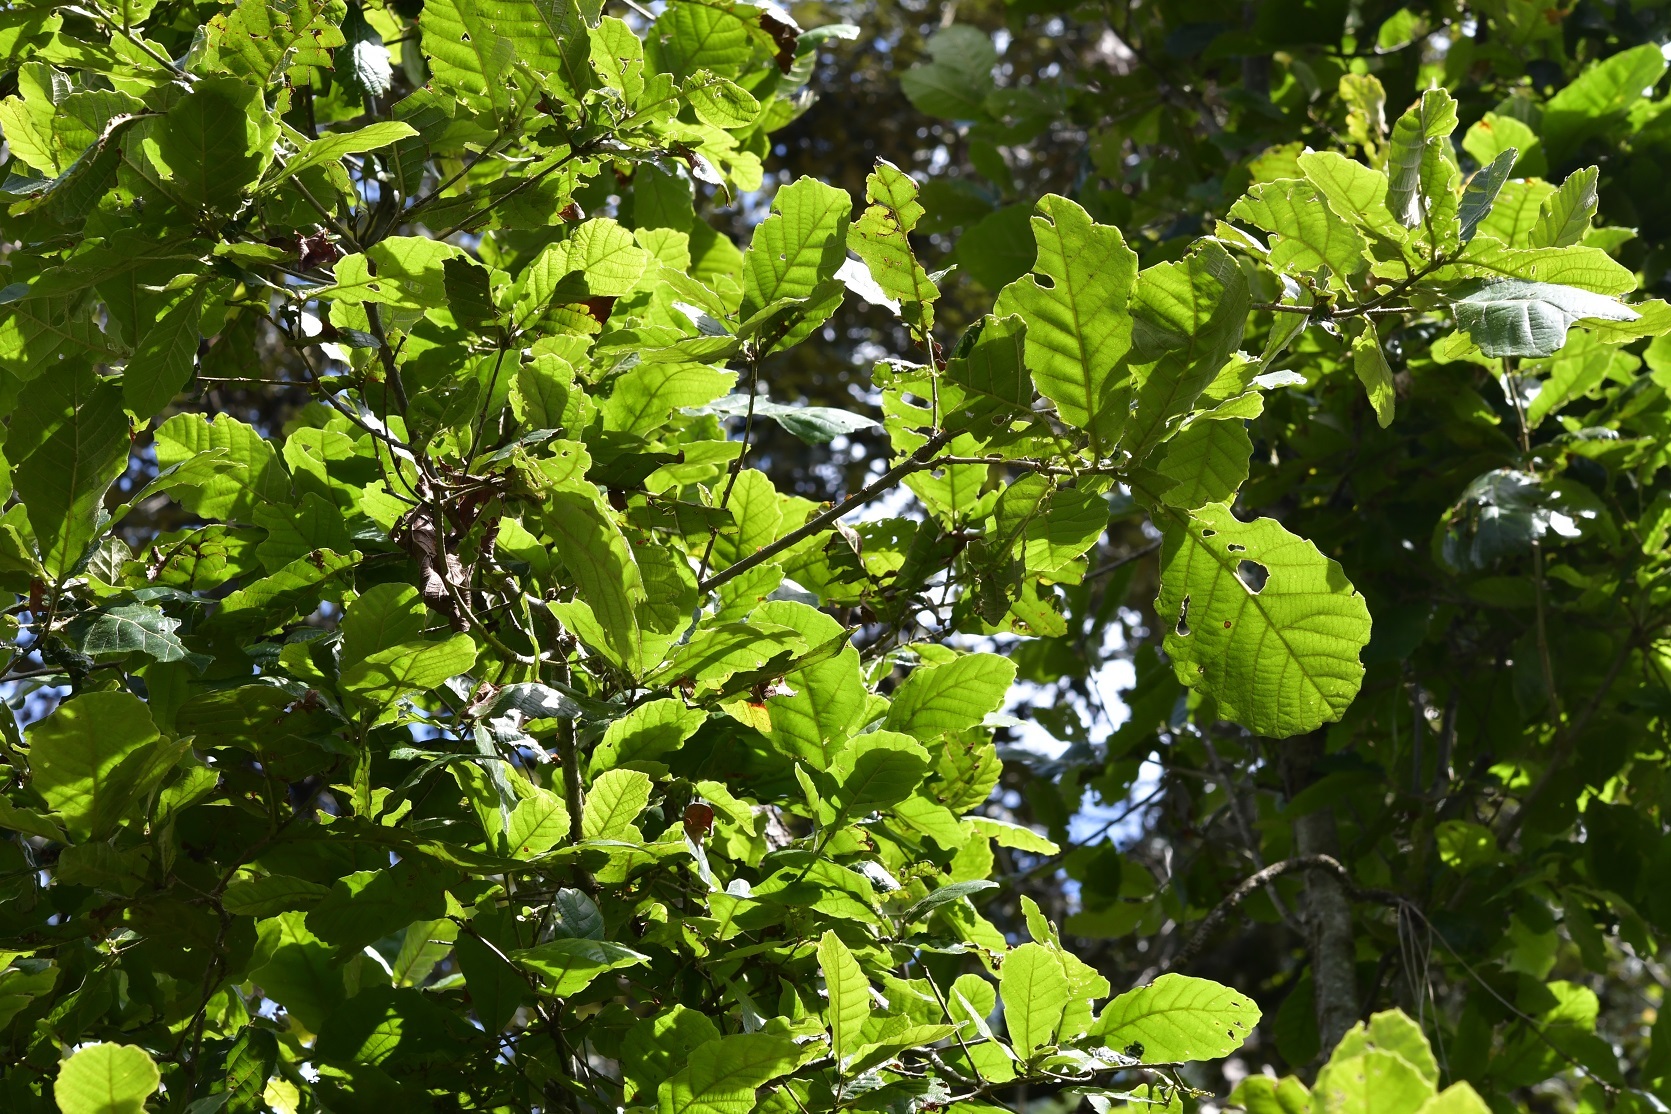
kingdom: Plantae
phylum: Tracheophyta
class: Magnoliopsida
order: Fagales
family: Fagaceae
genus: Quercus
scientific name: Quercus segoviensis
